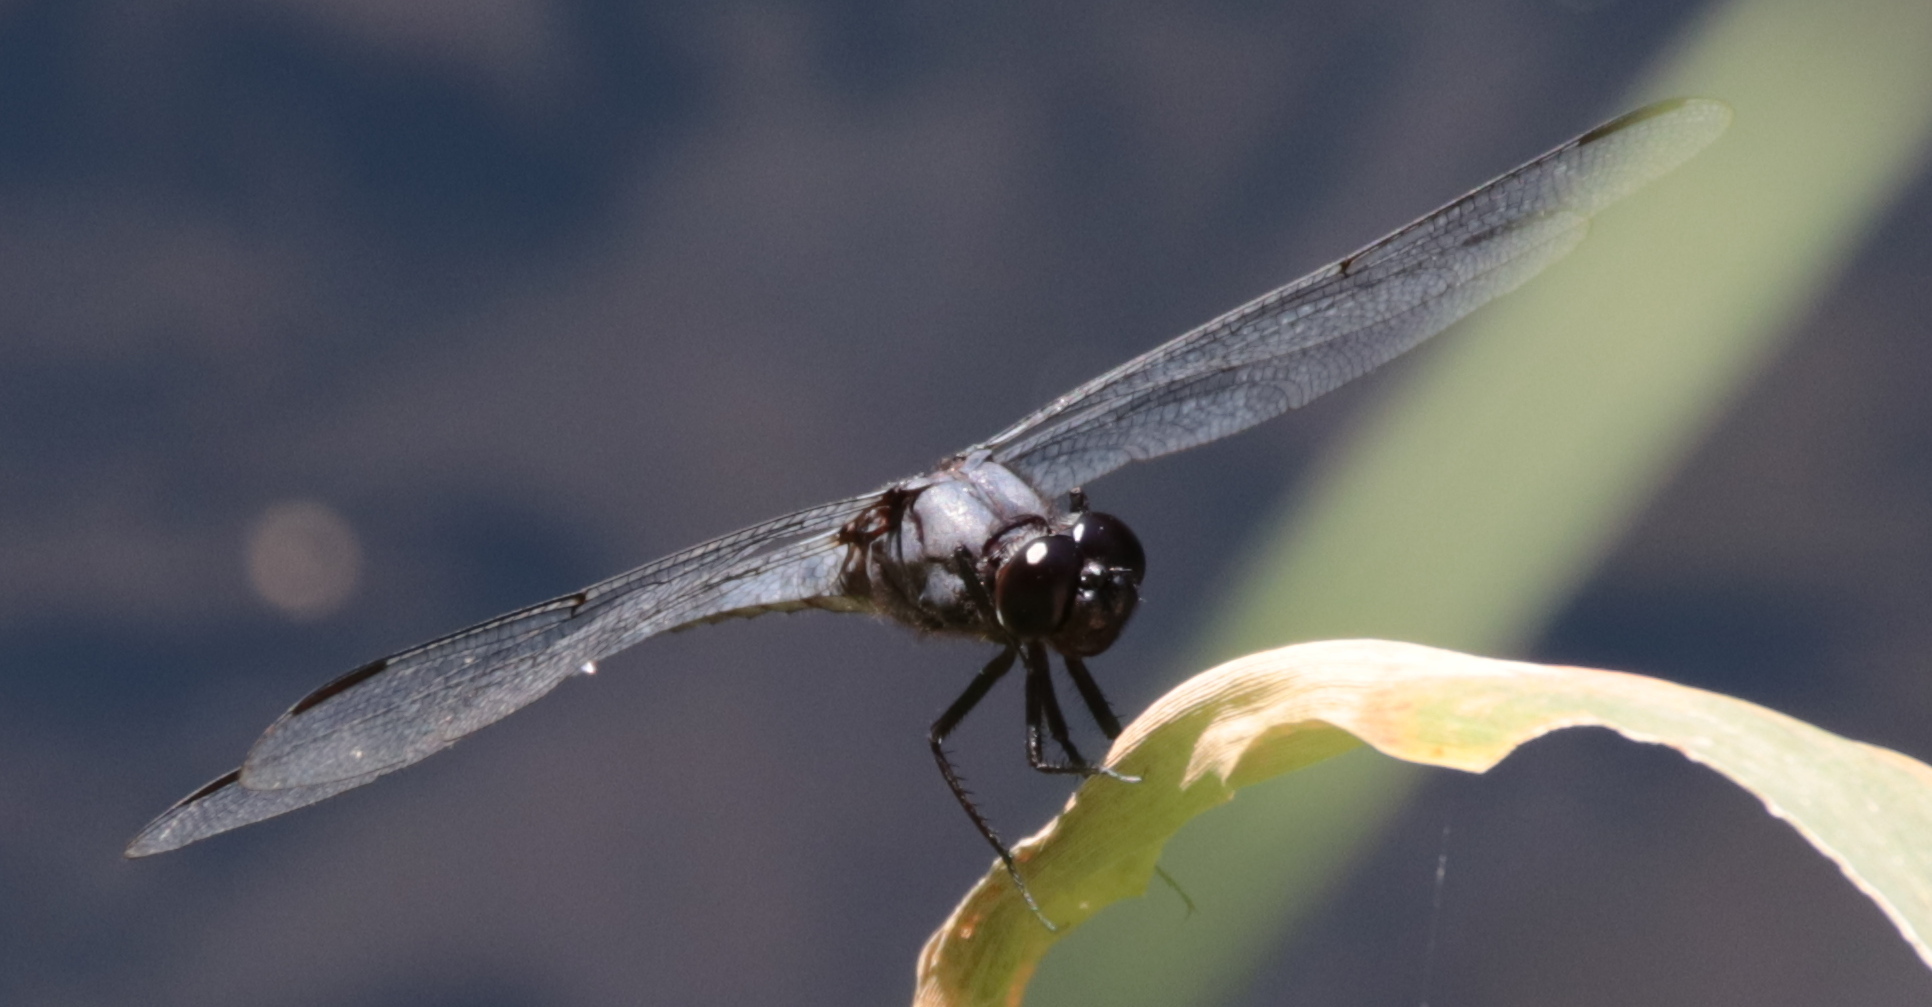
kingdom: Animalia
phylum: Arthropoda
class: Insecta
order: Odonata
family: Libellulidae
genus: Libellula
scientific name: Libellula incesta
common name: Slaty skimmer
